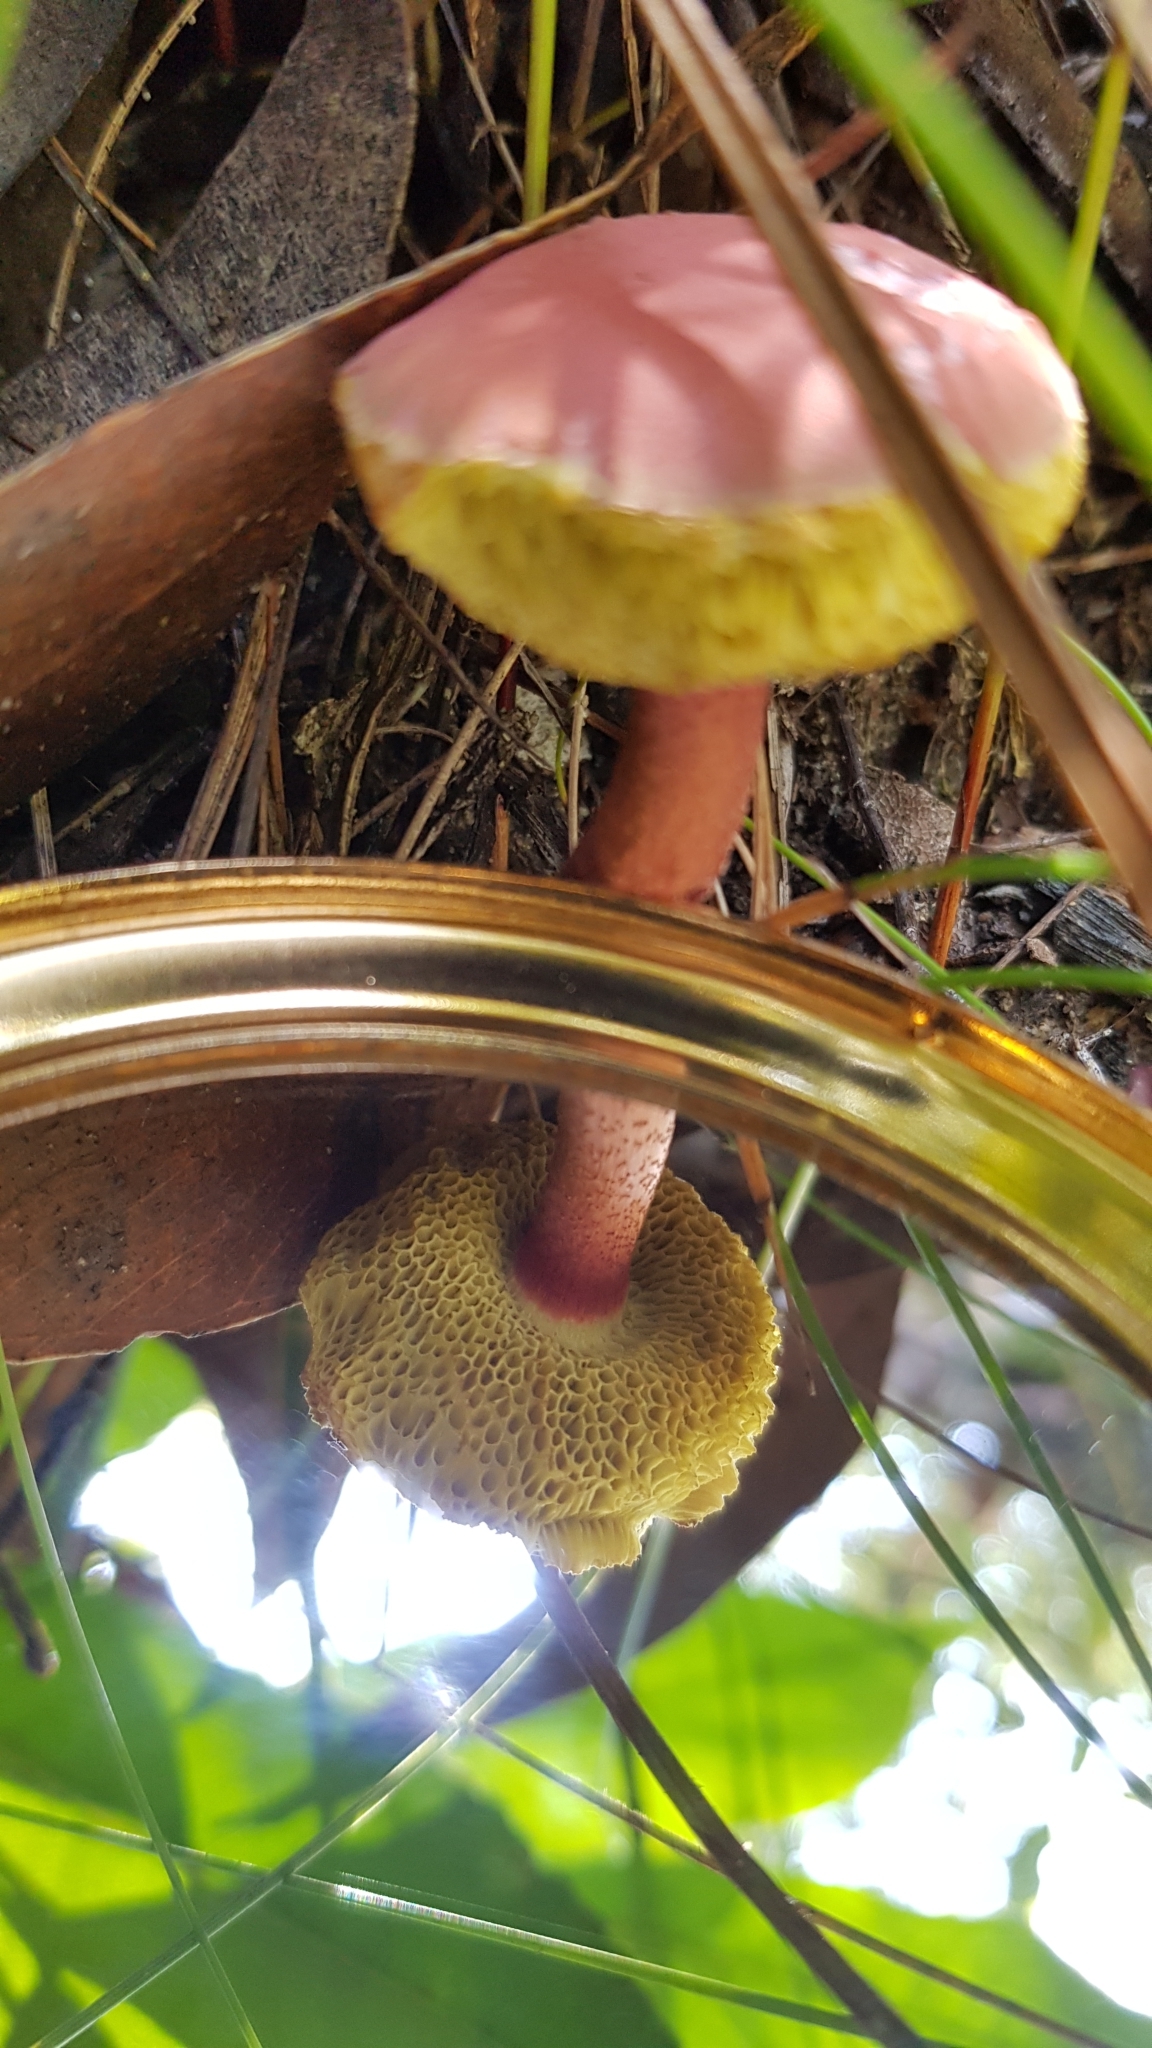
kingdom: Fungi
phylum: Basidiomycota
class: Agaricomycetes
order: Boletales
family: Boletaceae
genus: Boletellus
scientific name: Boletellus obscurecoccineus
